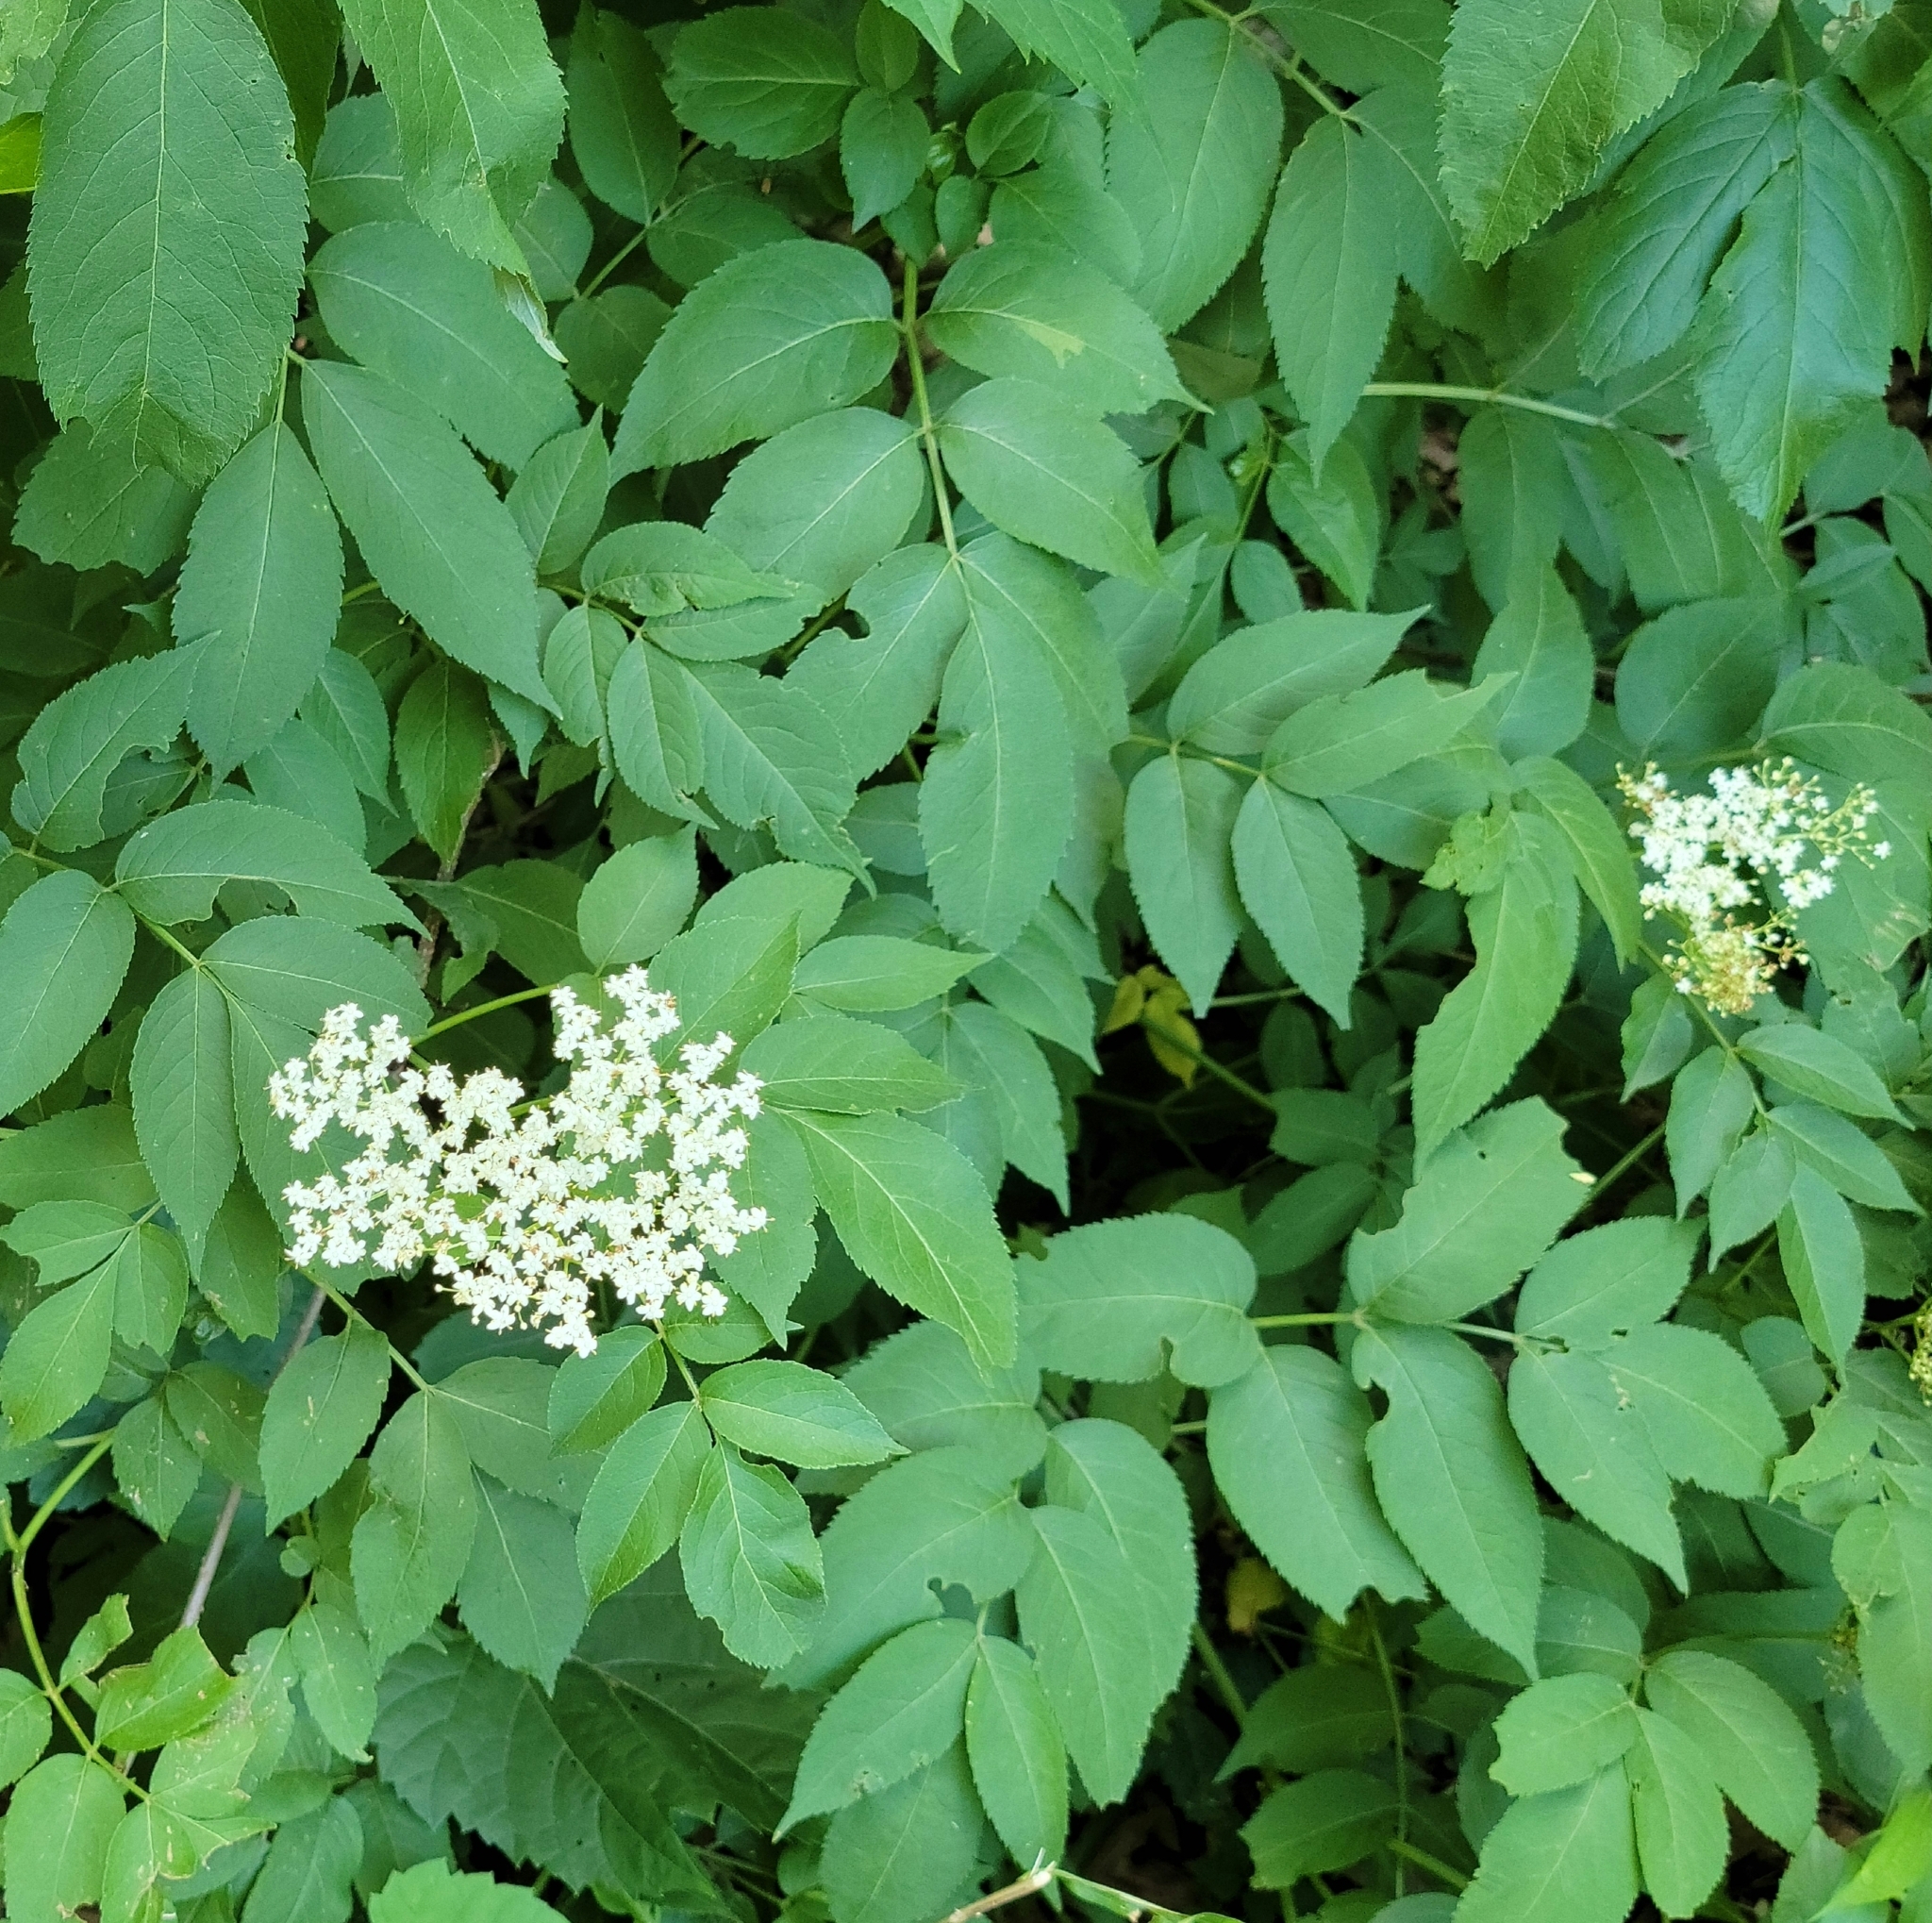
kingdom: Plantae
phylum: Tracheophyta
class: Magnoliopsida
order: Dipsacales
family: Viburnaceae
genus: Sambucus
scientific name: Sambucus canadensis
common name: American elder
